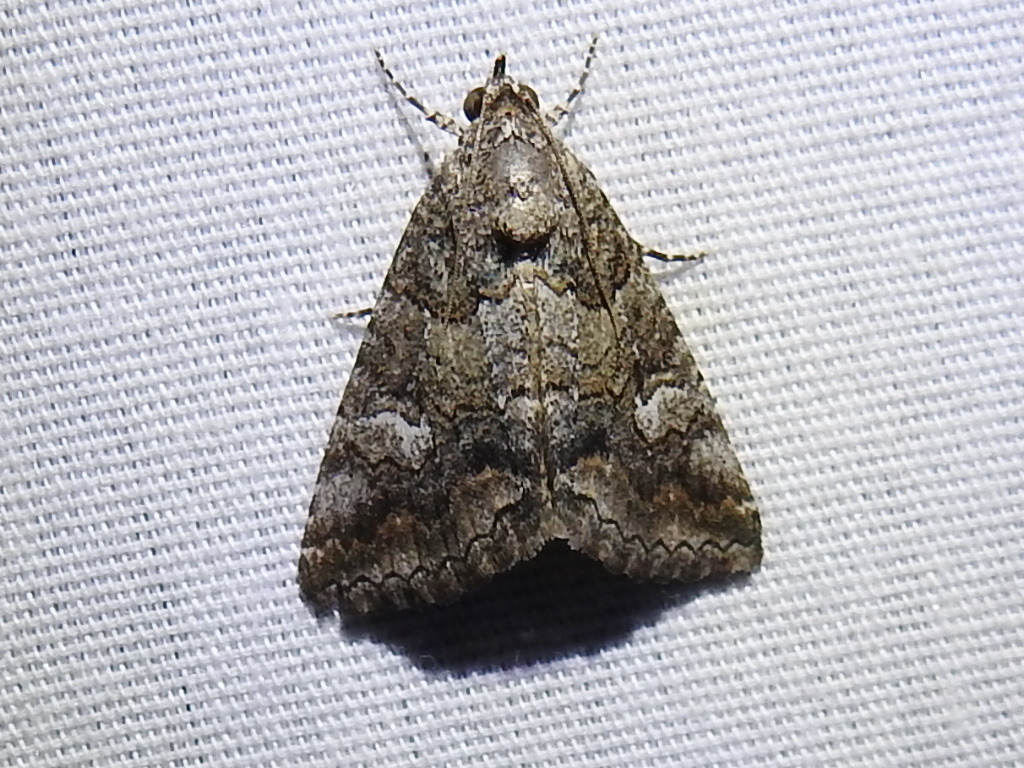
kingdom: Animalia
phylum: Arthropoda
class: Insecta
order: Lepidoptera
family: Erebidae
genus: Metria
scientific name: Metria amella
